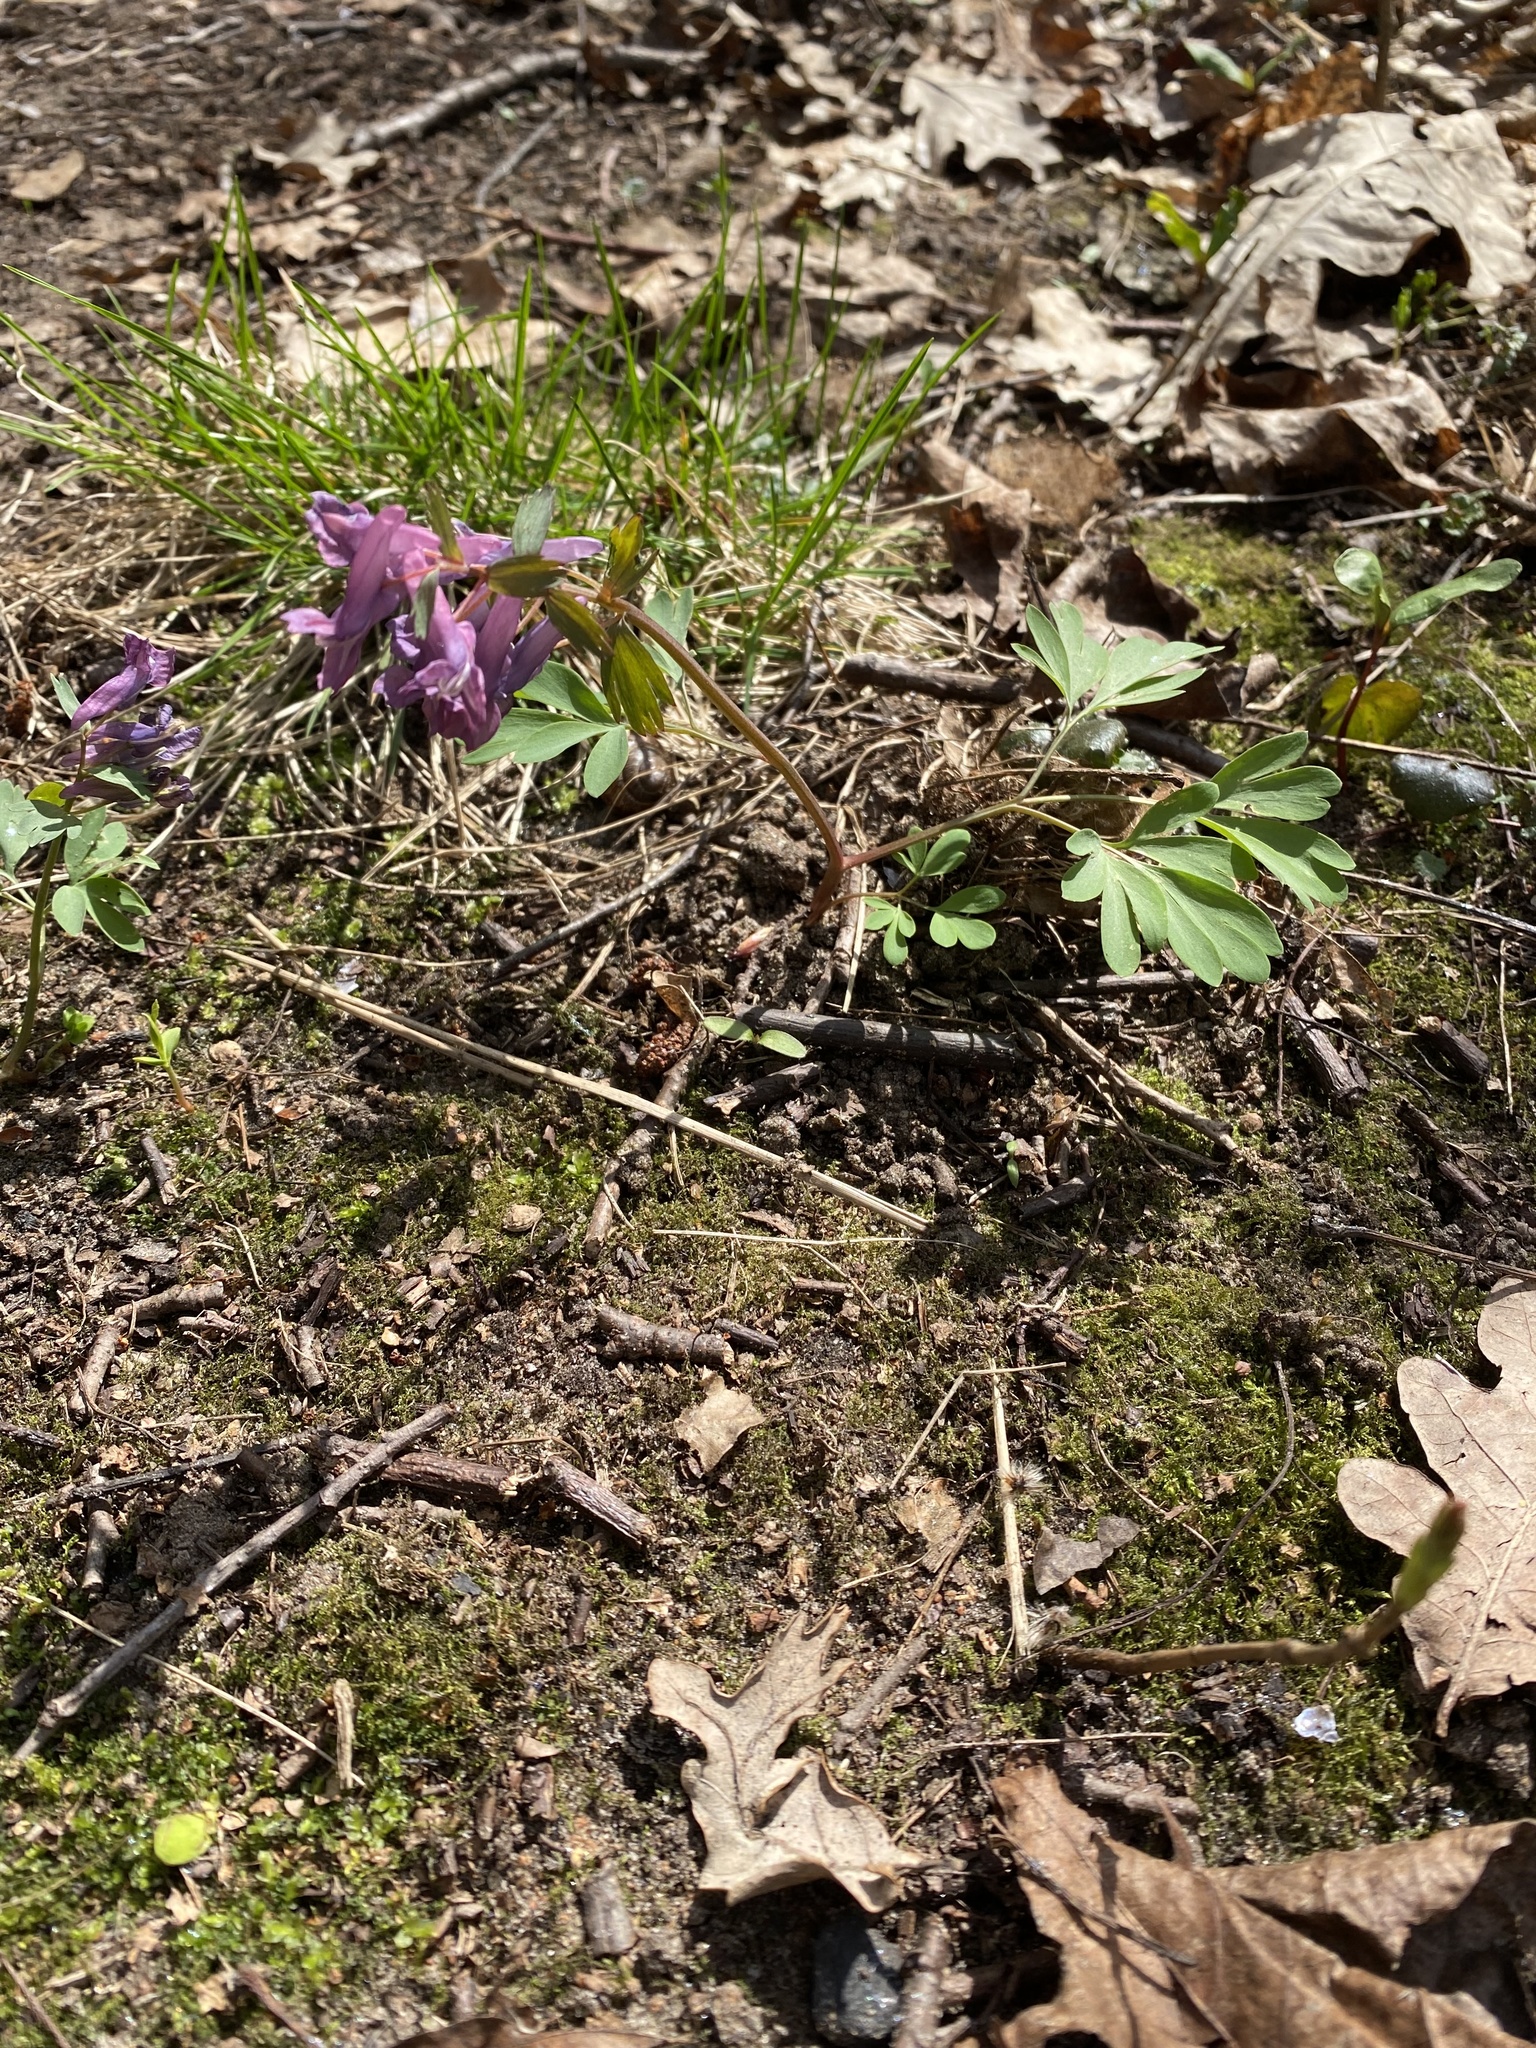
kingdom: Plantae
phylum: Tracheophyta
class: Magnoliopsida
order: Ranunculales
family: Papaveraceae
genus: Corydalis
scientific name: Corydalis solida
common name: Bird-in-a-bush
